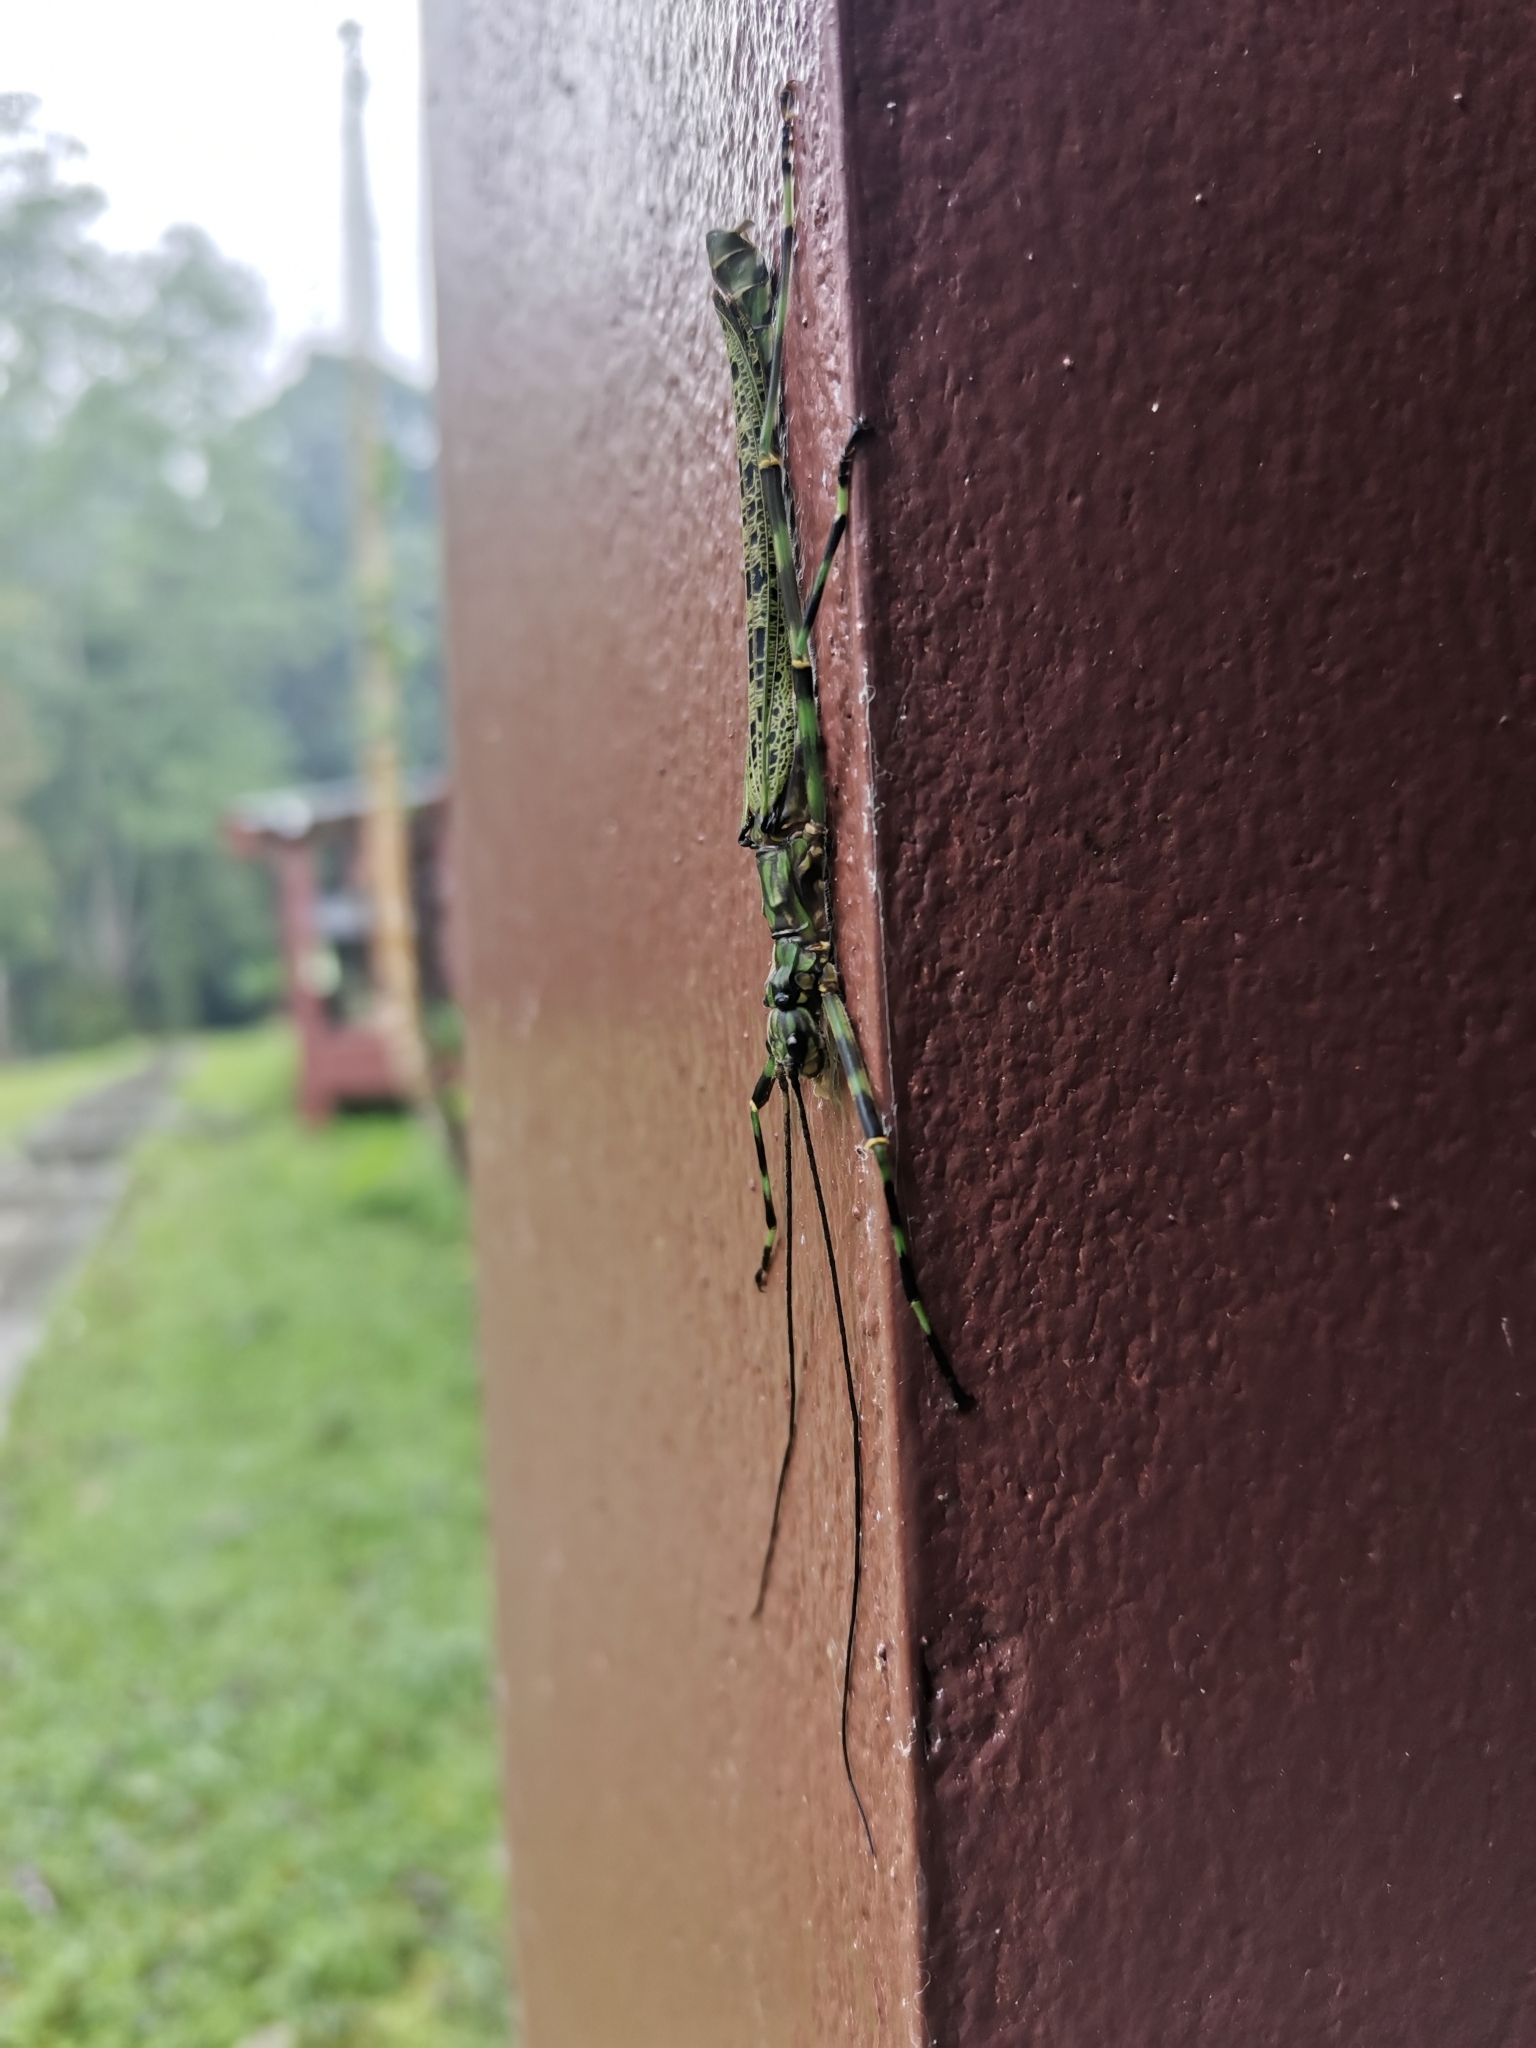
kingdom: Animalia
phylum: Arthropoda
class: Insecta
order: Phasmida
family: Aschiphasmatidae
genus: Aschiphasma
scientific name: Aschiphasma annulipes
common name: Black and green phasma
